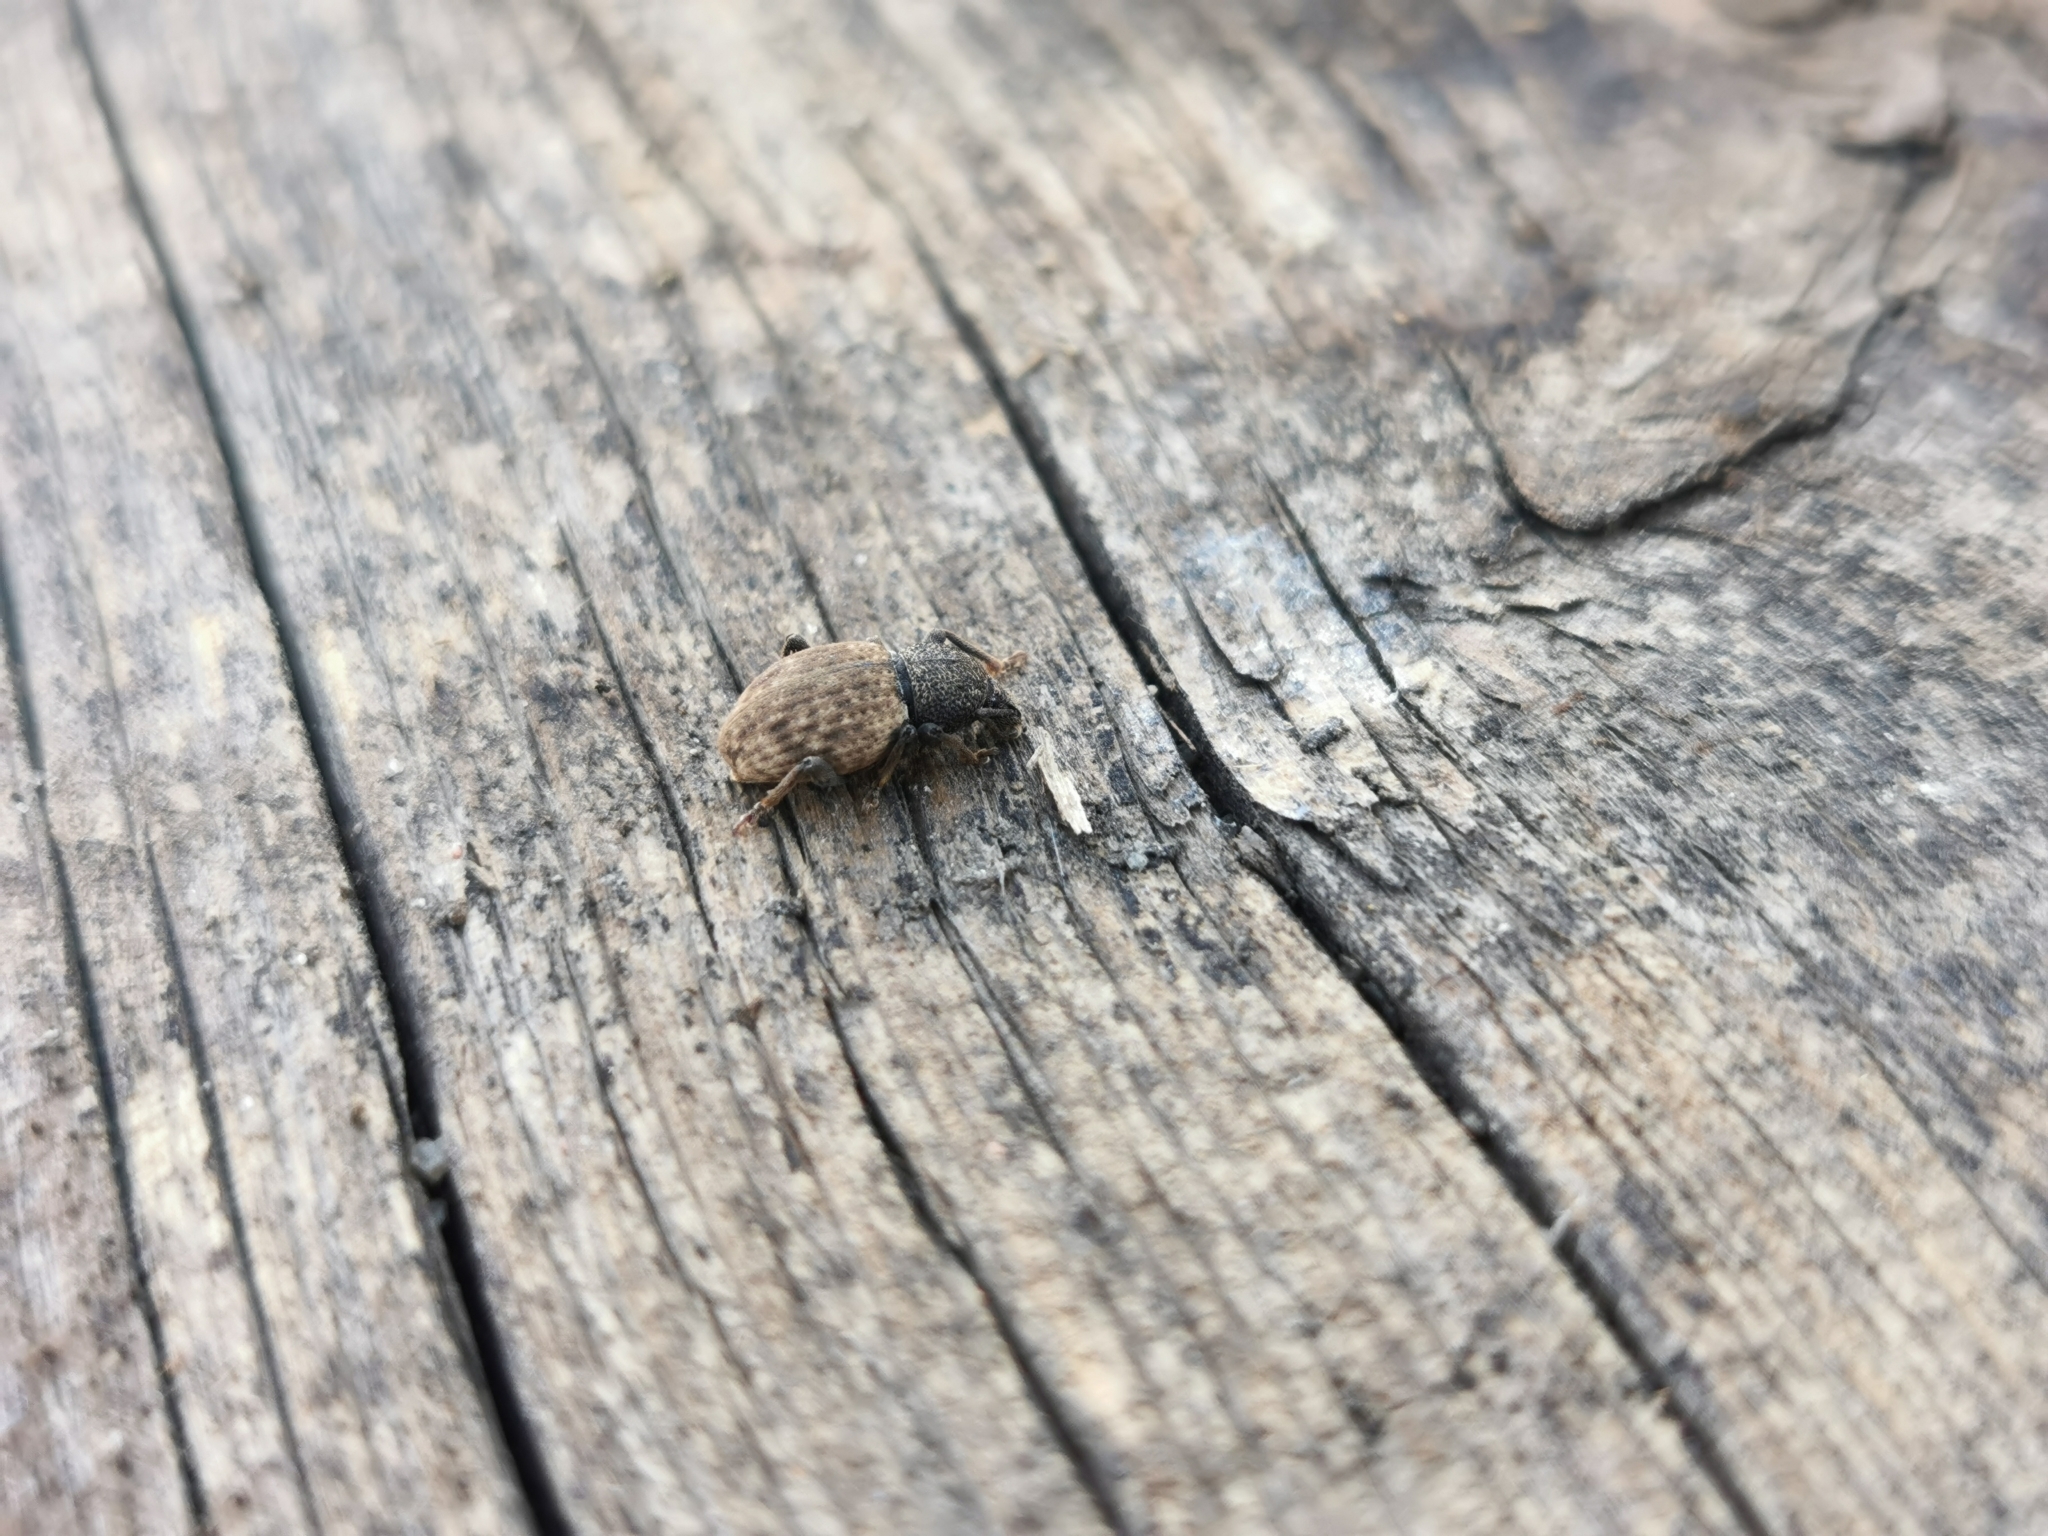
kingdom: Animalia
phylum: Arthropoda
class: Insecta
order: Coleoptera
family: Curculionidae
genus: Otiorhynchus
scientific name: Otiorhynchus raucus
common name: Weevil
